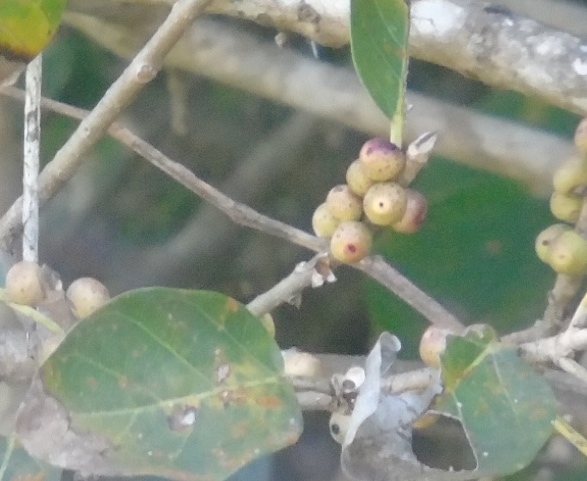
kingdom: Plantae
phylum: Tracheophyta
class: Magnoliopsida
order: Rosales
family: Moraceae
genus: Ficus
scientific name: Ficus cotinifolia
